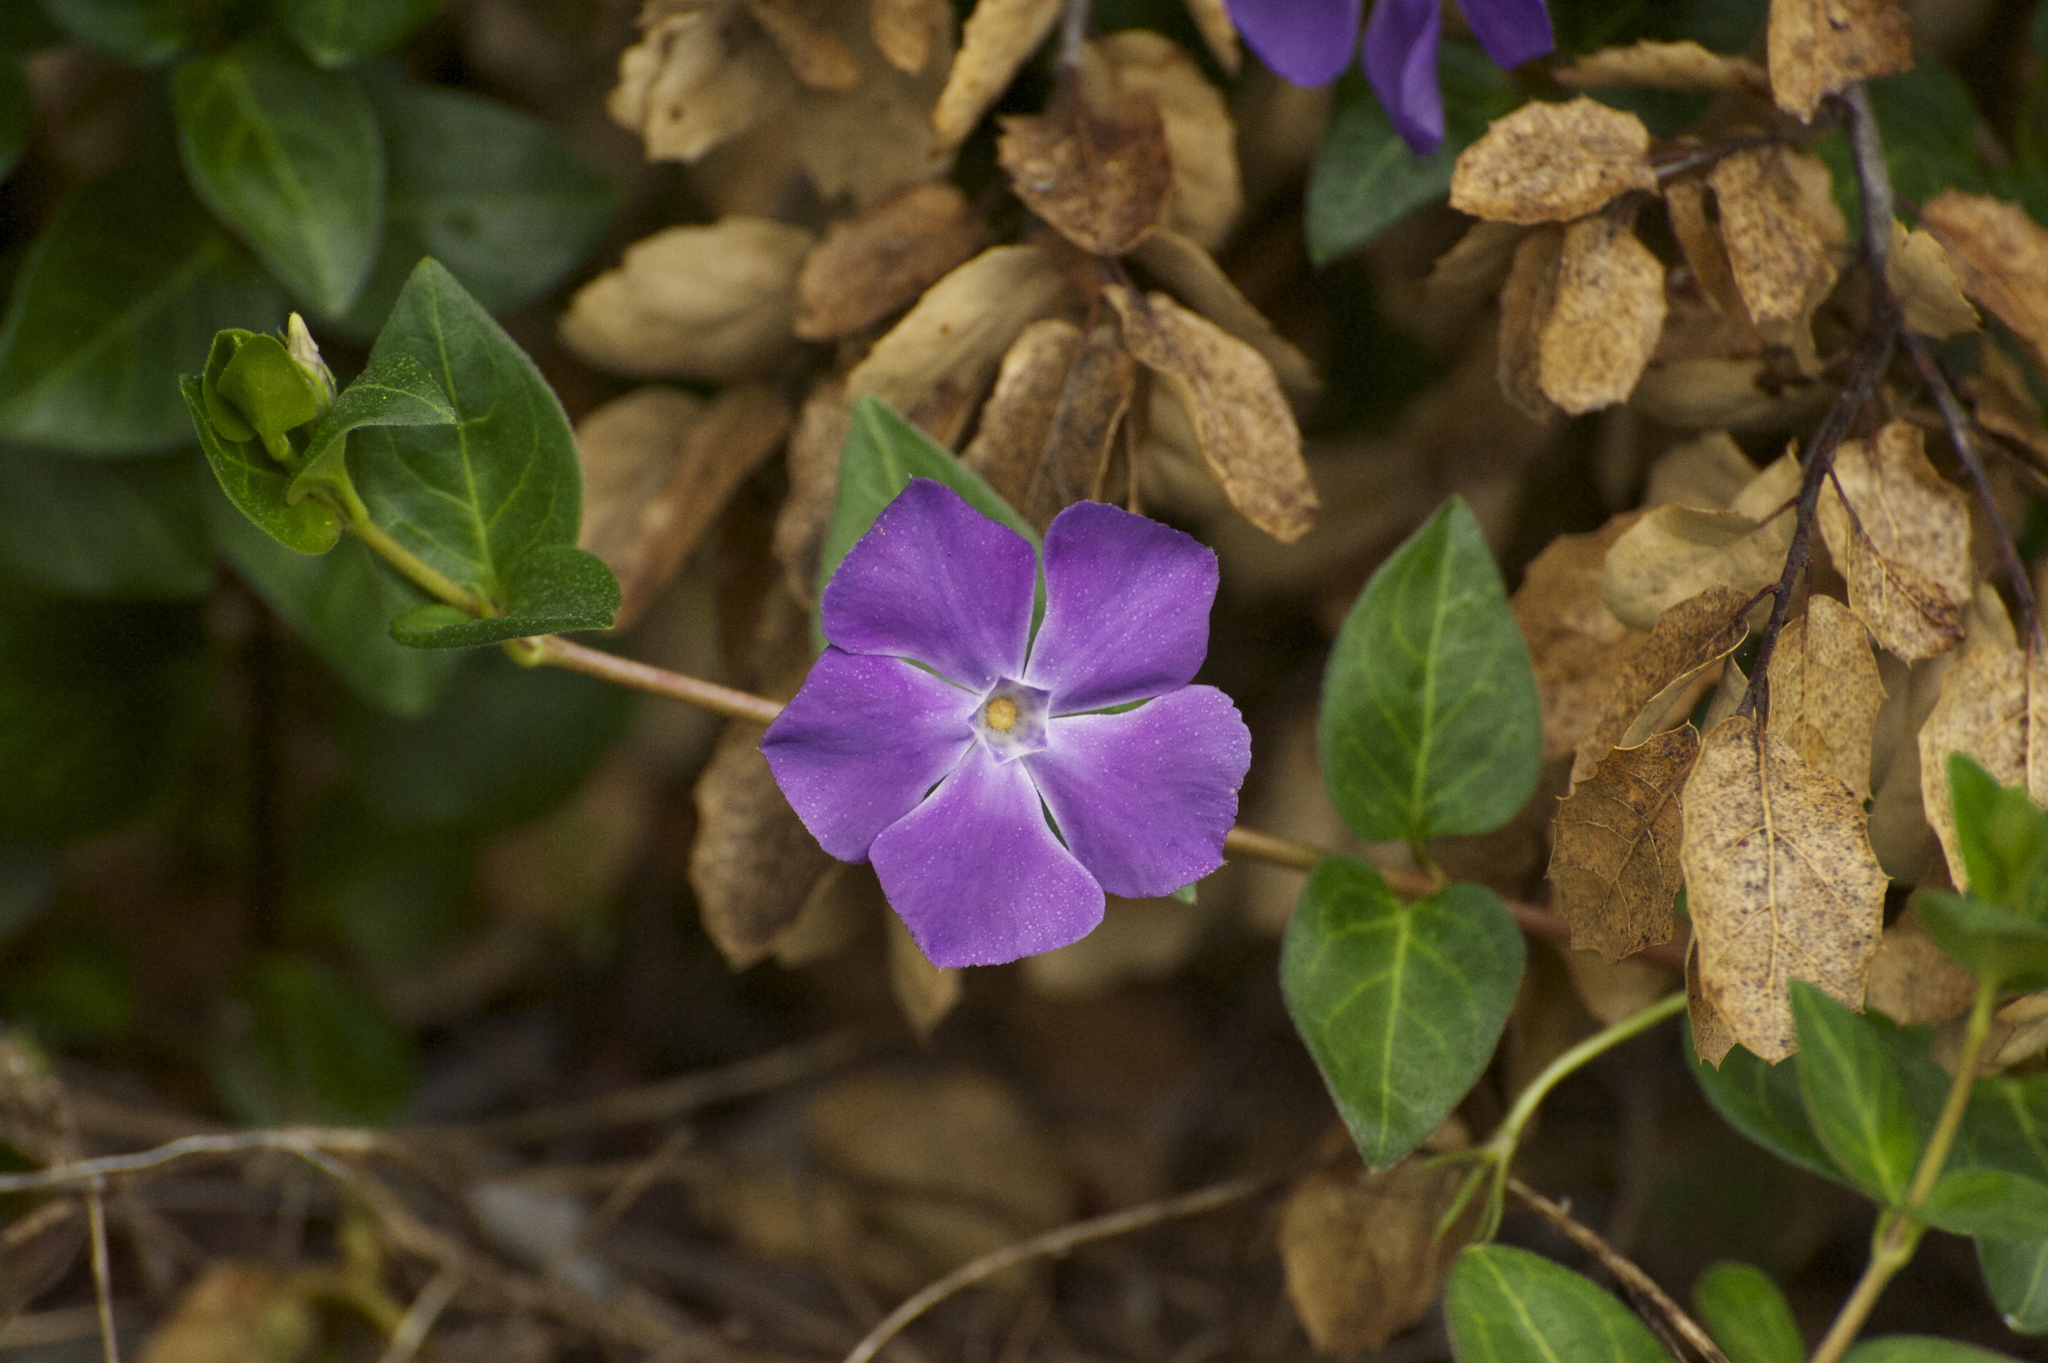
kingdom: Plantae
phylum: Tracheophyta
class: Magnoliopsida
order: Gentianales
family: Apocynaceae
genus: Vinca
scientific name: Vinca major
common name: Greater periwinkle
